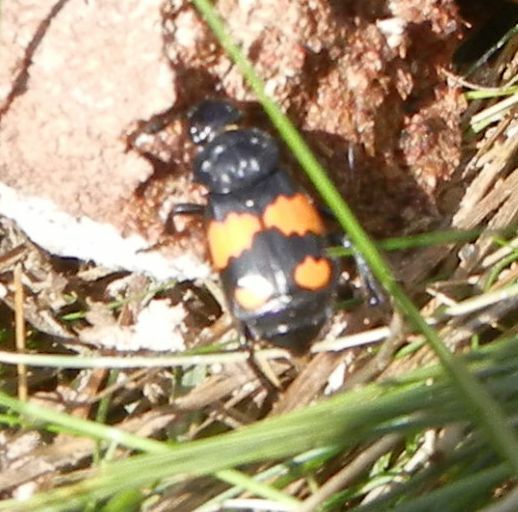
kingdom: Animalia
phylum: Arthropoda
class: Insecta
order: Coleoptera
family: Staphylinidae
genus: Nicrophorus
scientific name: Nicrophorus vespilloides
